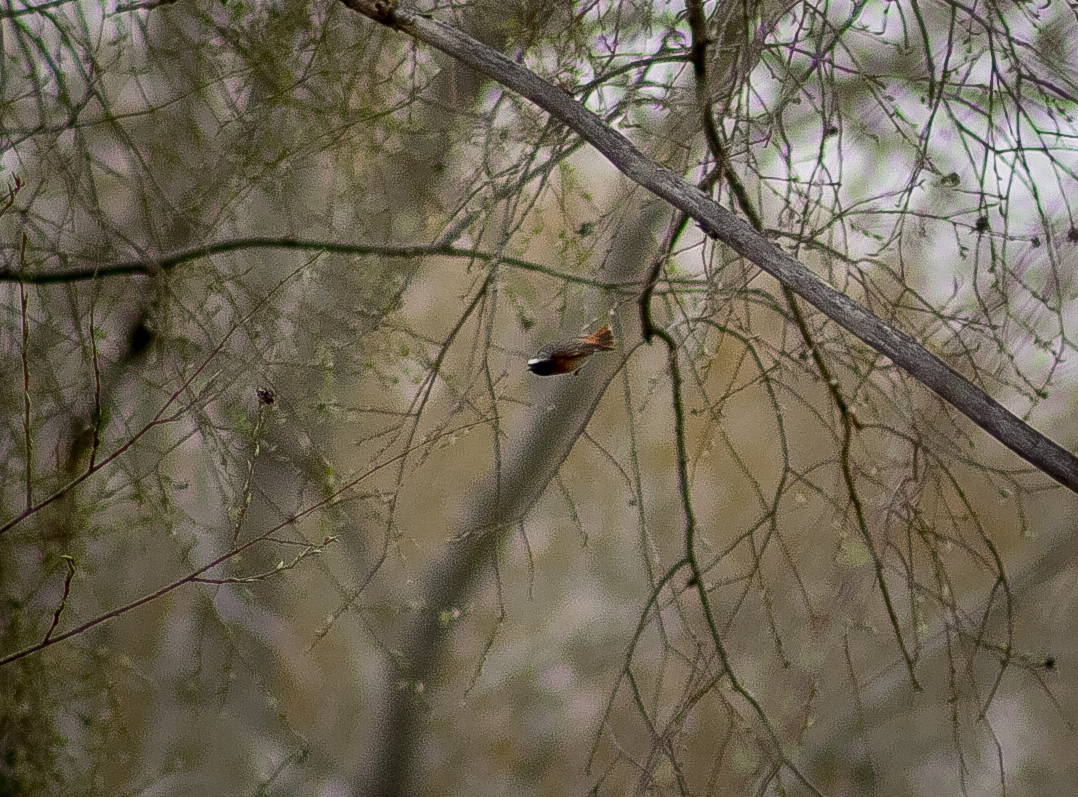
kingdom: Animalia
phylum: Chordata
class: Aves
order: Passeriformes
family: Muscicapidae
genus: Phoenicurus
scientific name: Phoenicurus phoenicurus
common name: Common redstart
